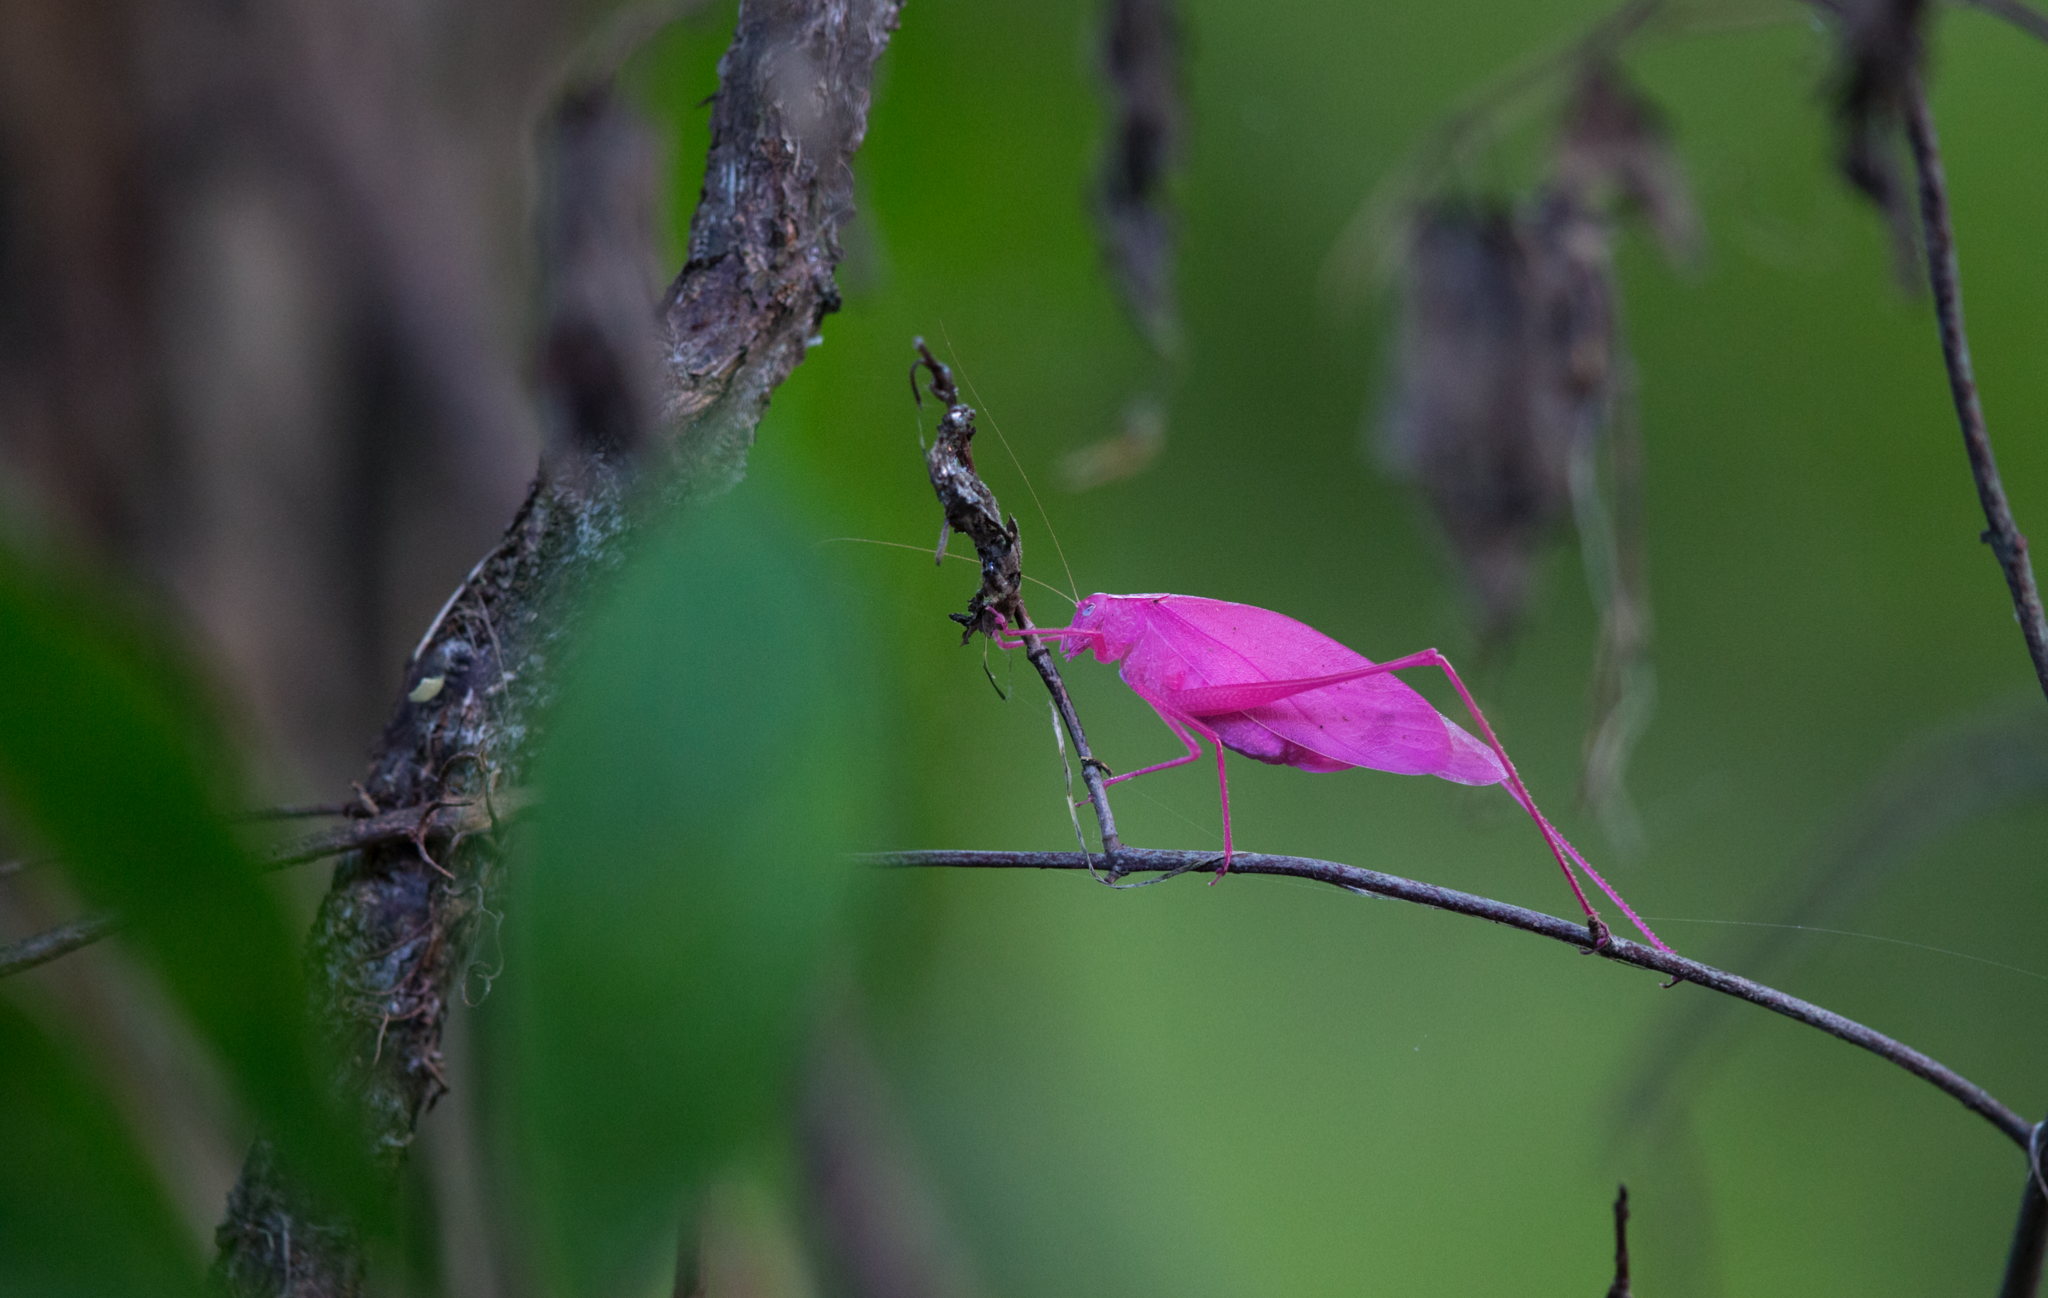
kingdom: Animalia
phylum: Arthropoda
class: Insecta
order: Orthoptera
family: Tettigoniidae
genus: Amblycorypha
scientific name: Amblycorypha oblongifolia
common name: Oblong-winged katydid
